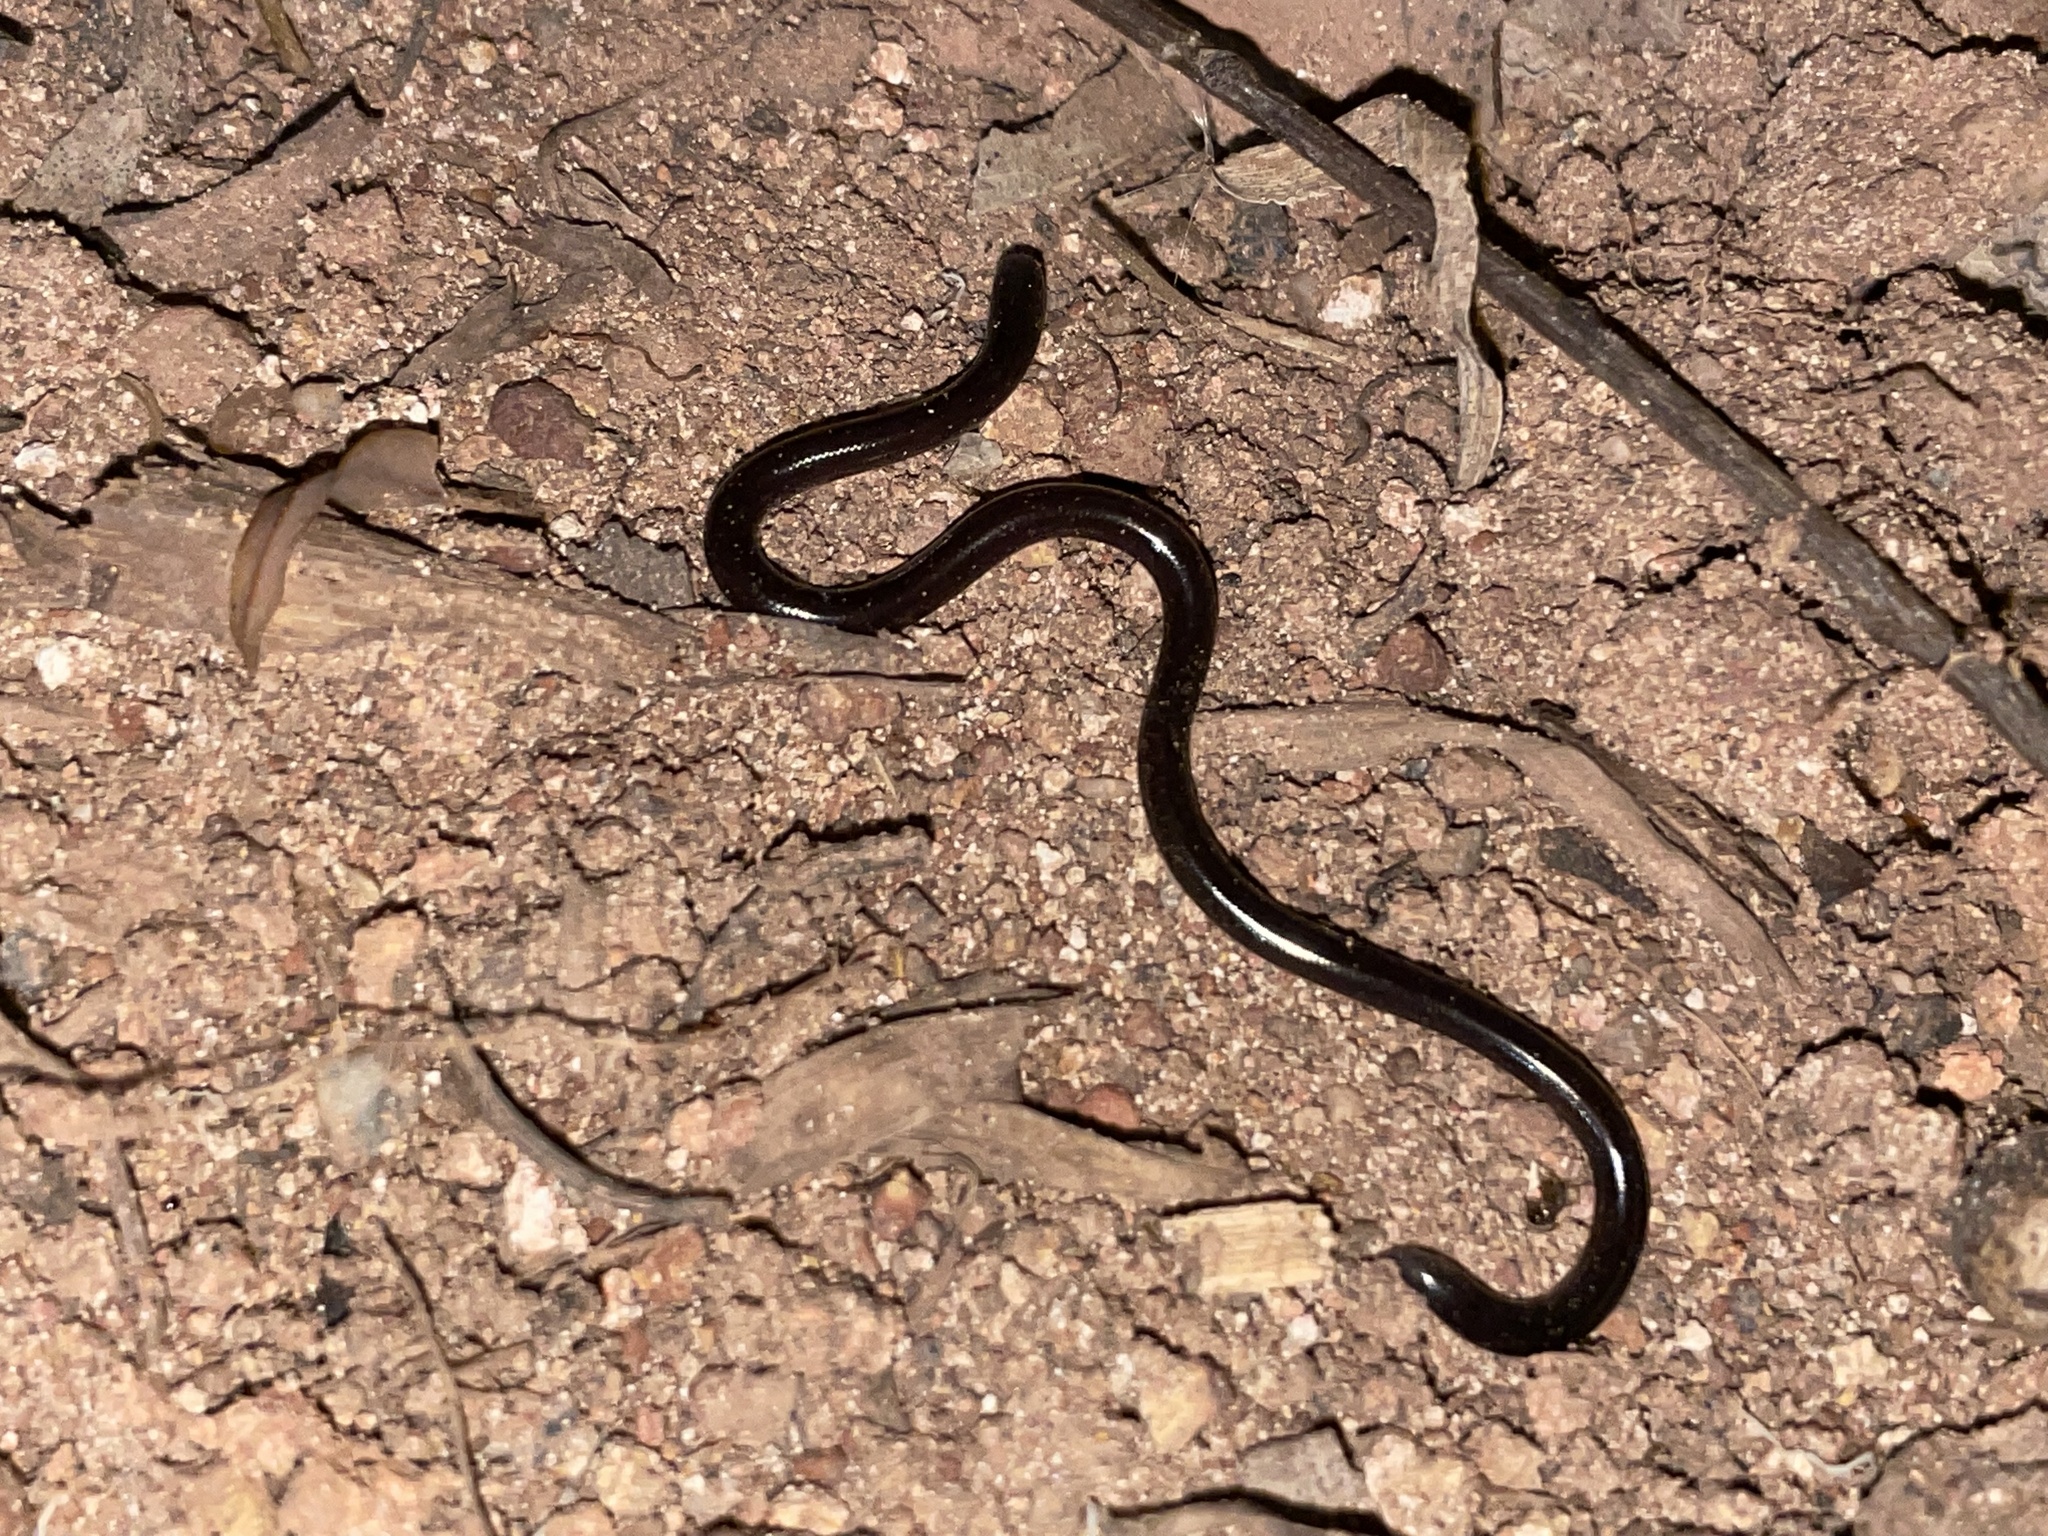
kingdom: Animalia
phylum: Chordata
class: Squamata
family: Typhlopidae
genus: Indotyphlops
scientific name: Indotyphlops braminus
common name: Brahminy blindsnake
